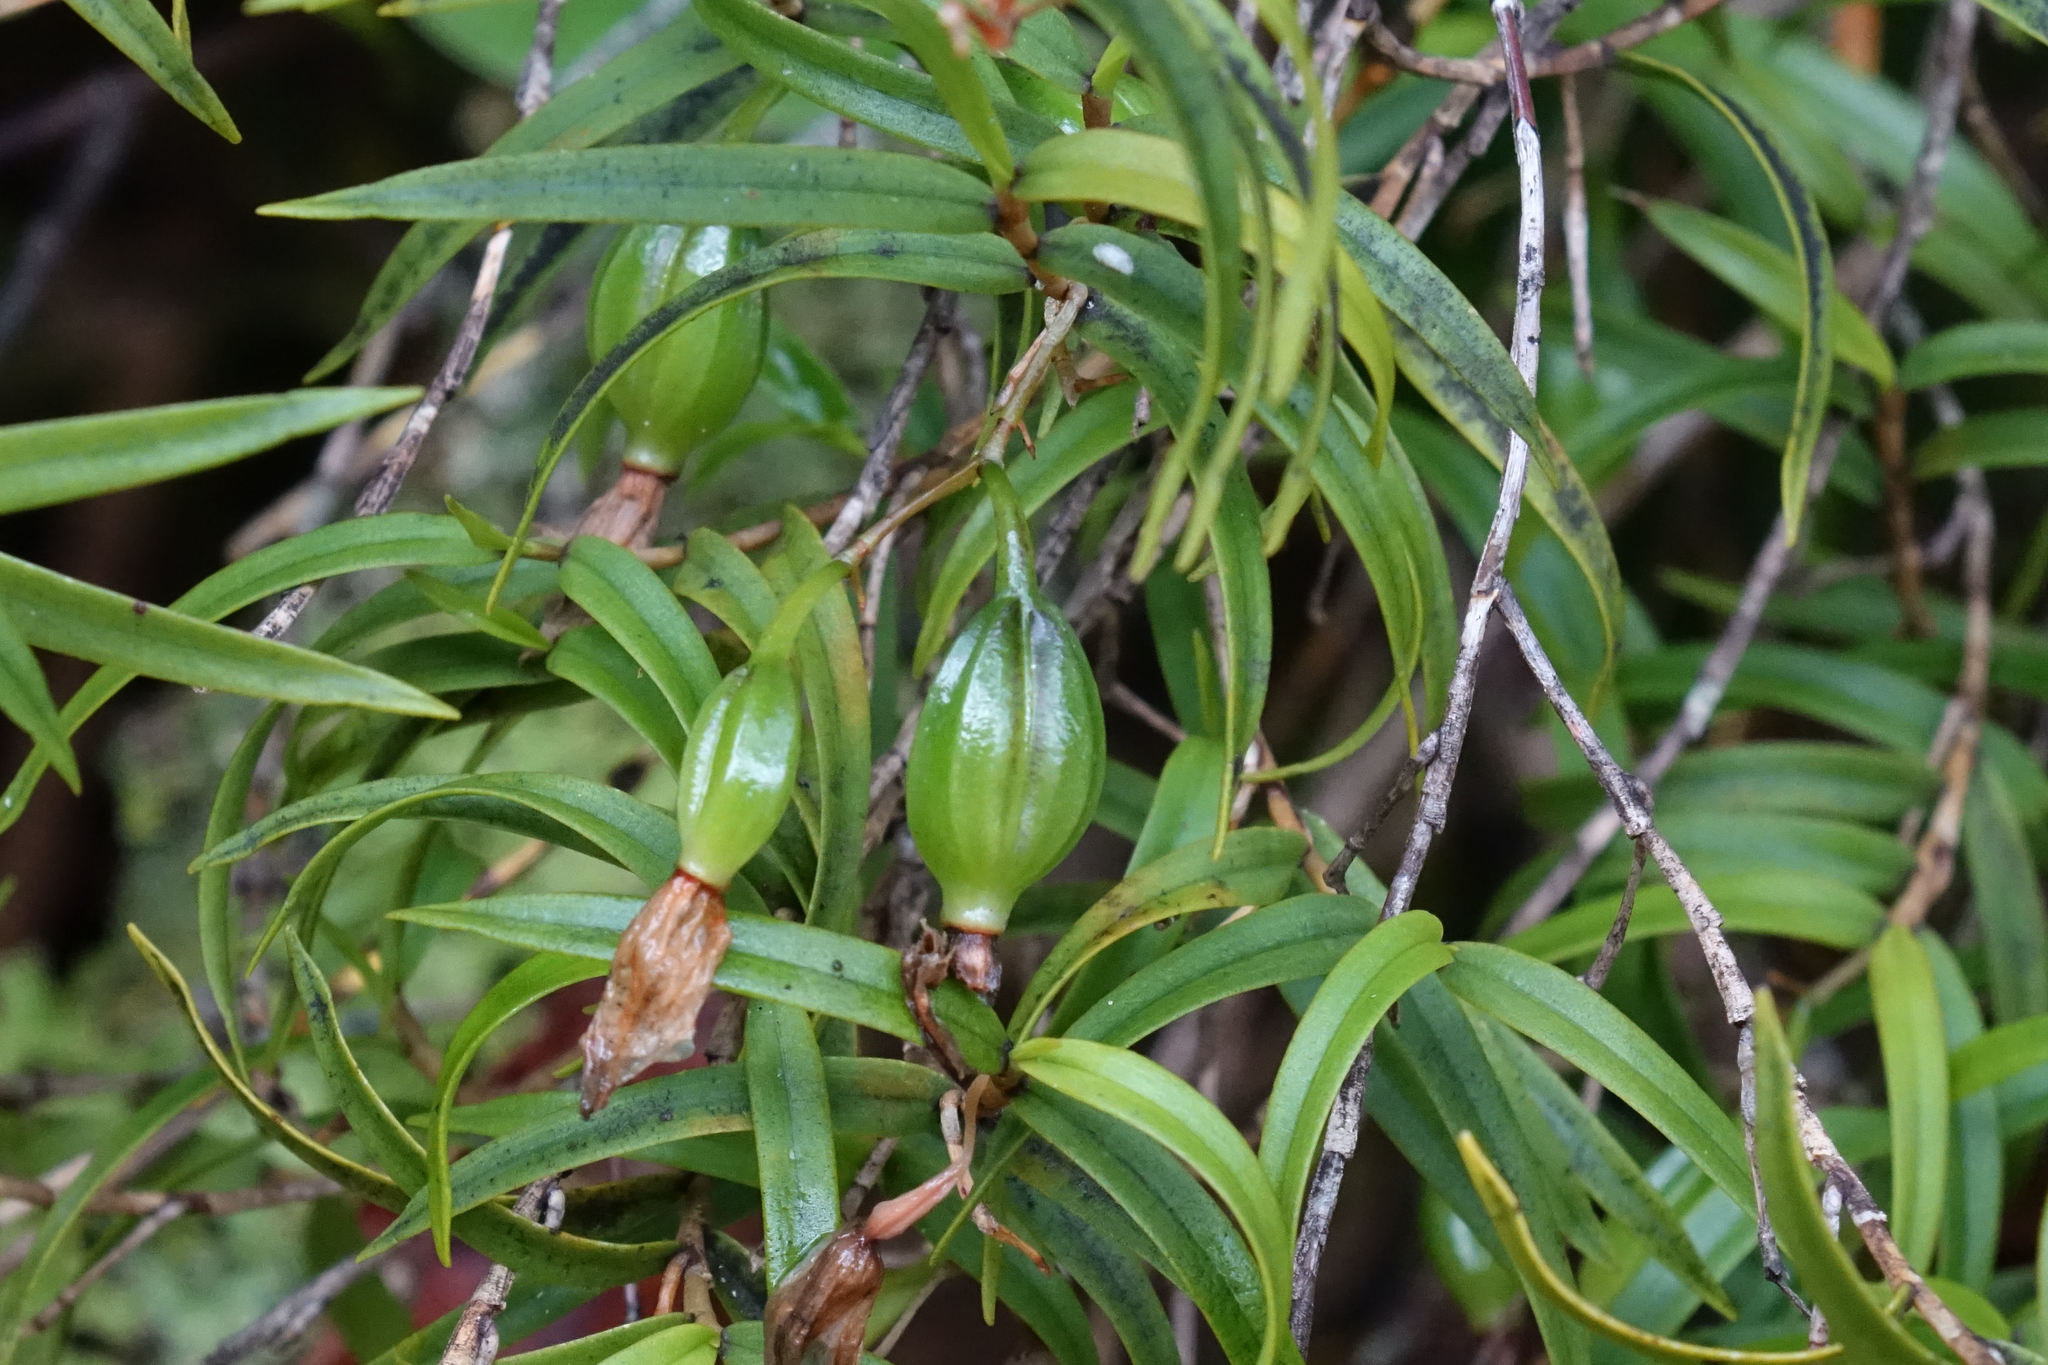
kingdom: Plantae
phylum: Tracheophyta
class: Liliopsida
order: Asparagales
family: Orchidaceae
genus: Dendrobium
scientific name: Dendrobium cunninghamii
